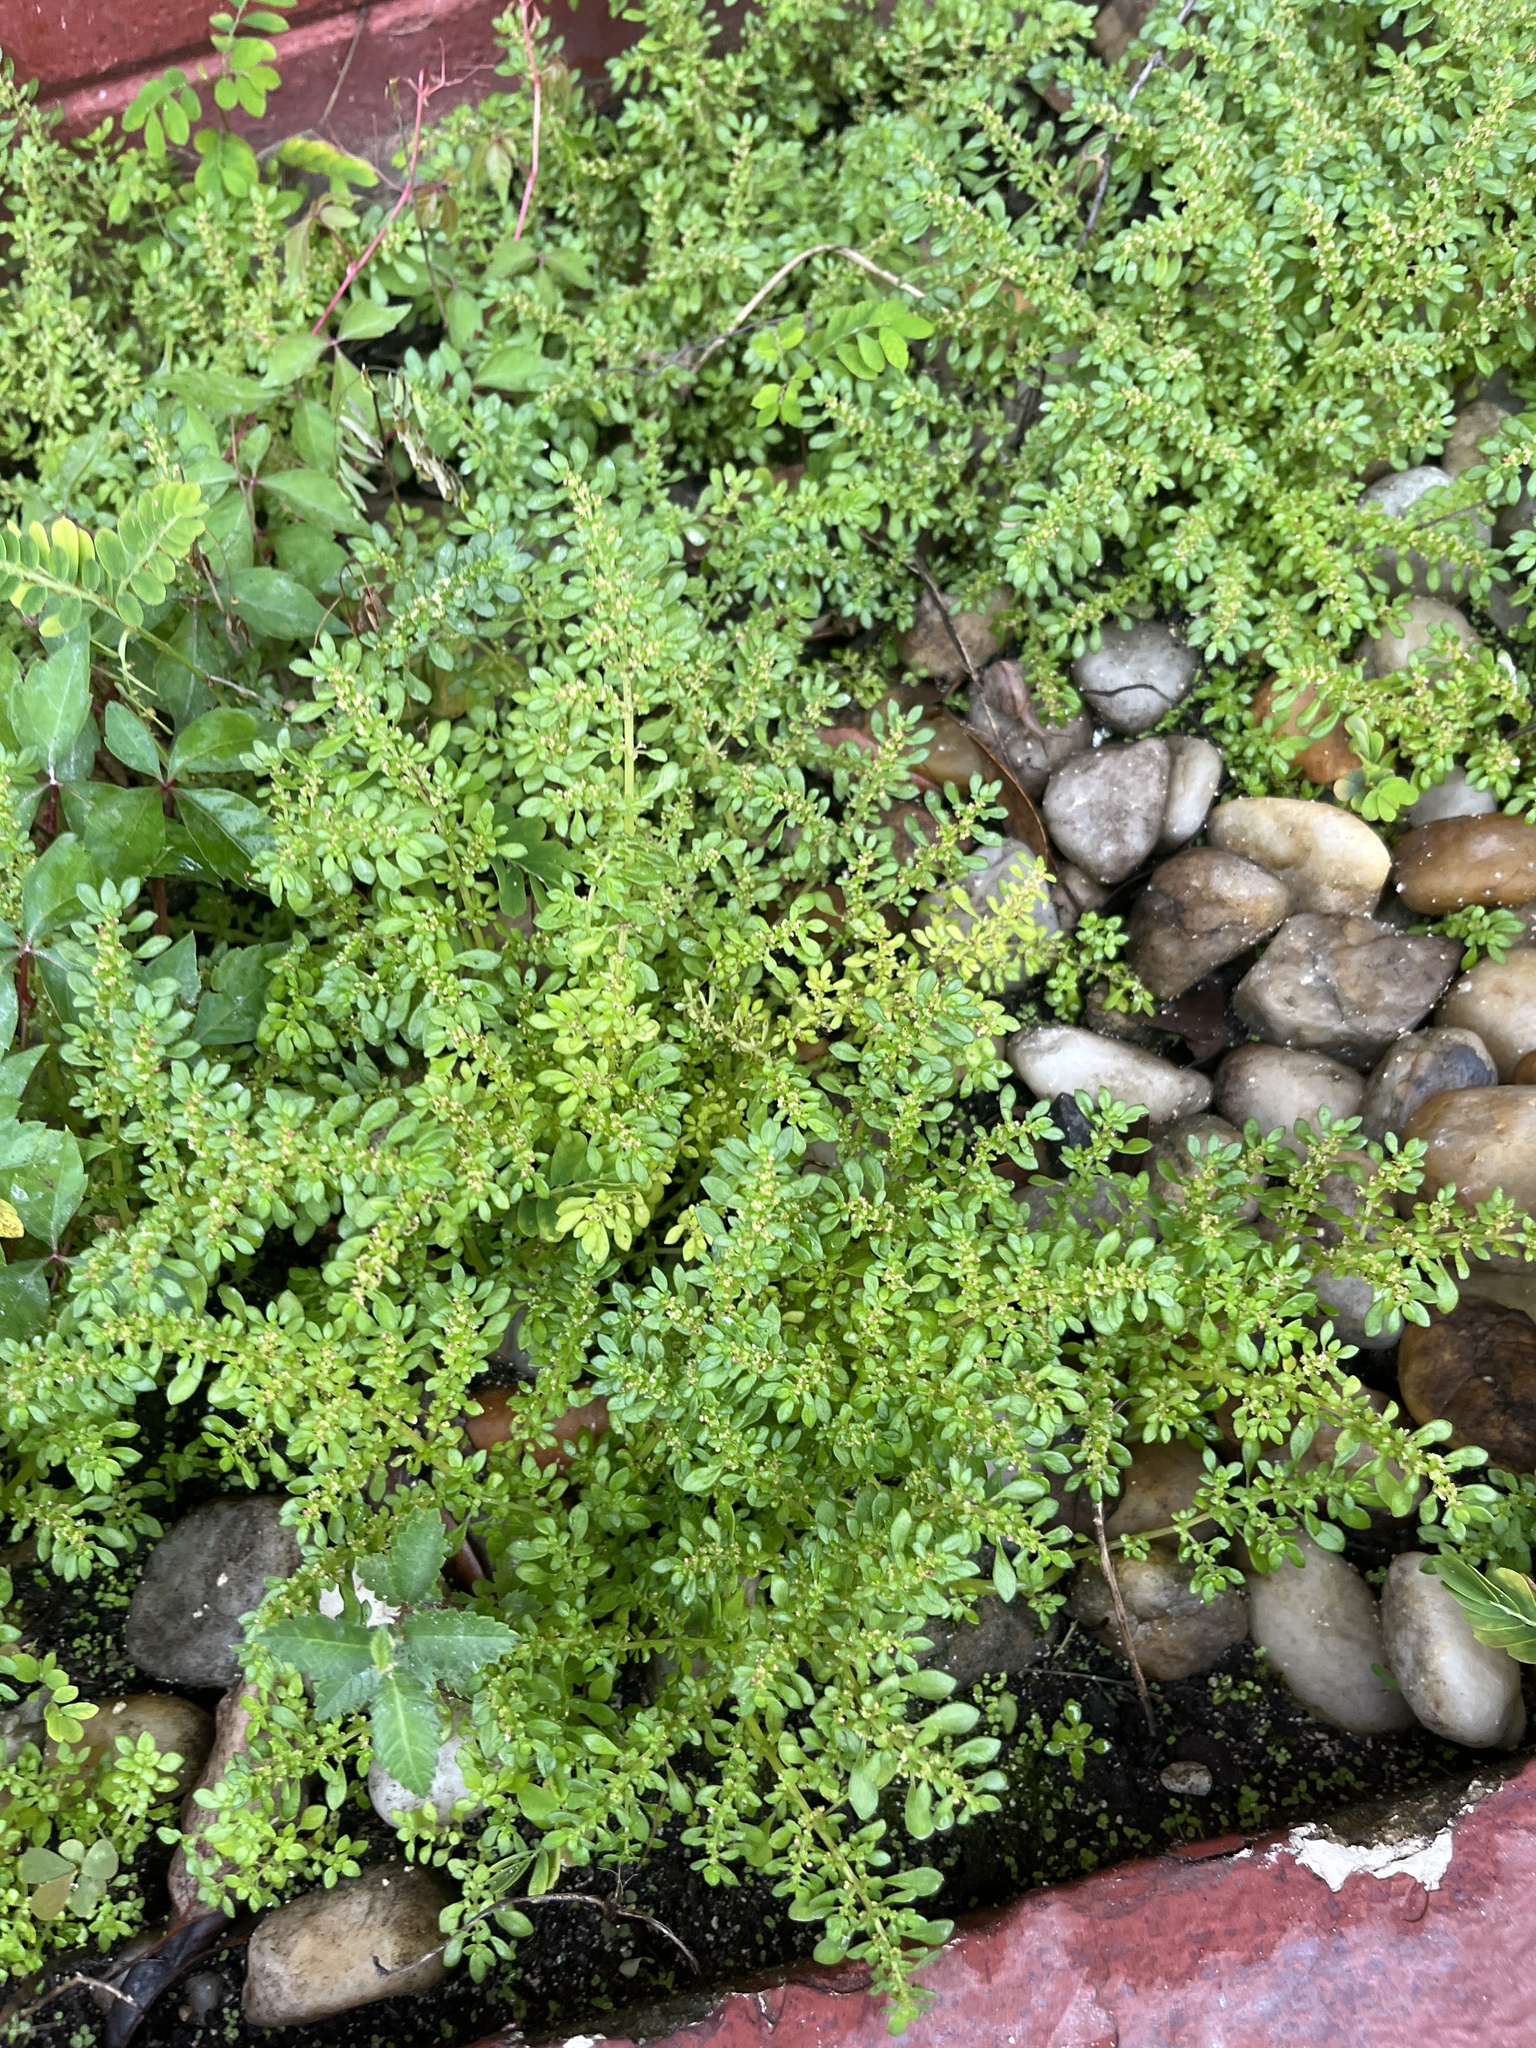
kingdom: Plantae
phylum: Tracheophyta
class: Magnoliopsida
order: Rosales
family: Urticaceae
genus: Pilea
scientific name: Pilea microphylla
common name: Artillery-plant
